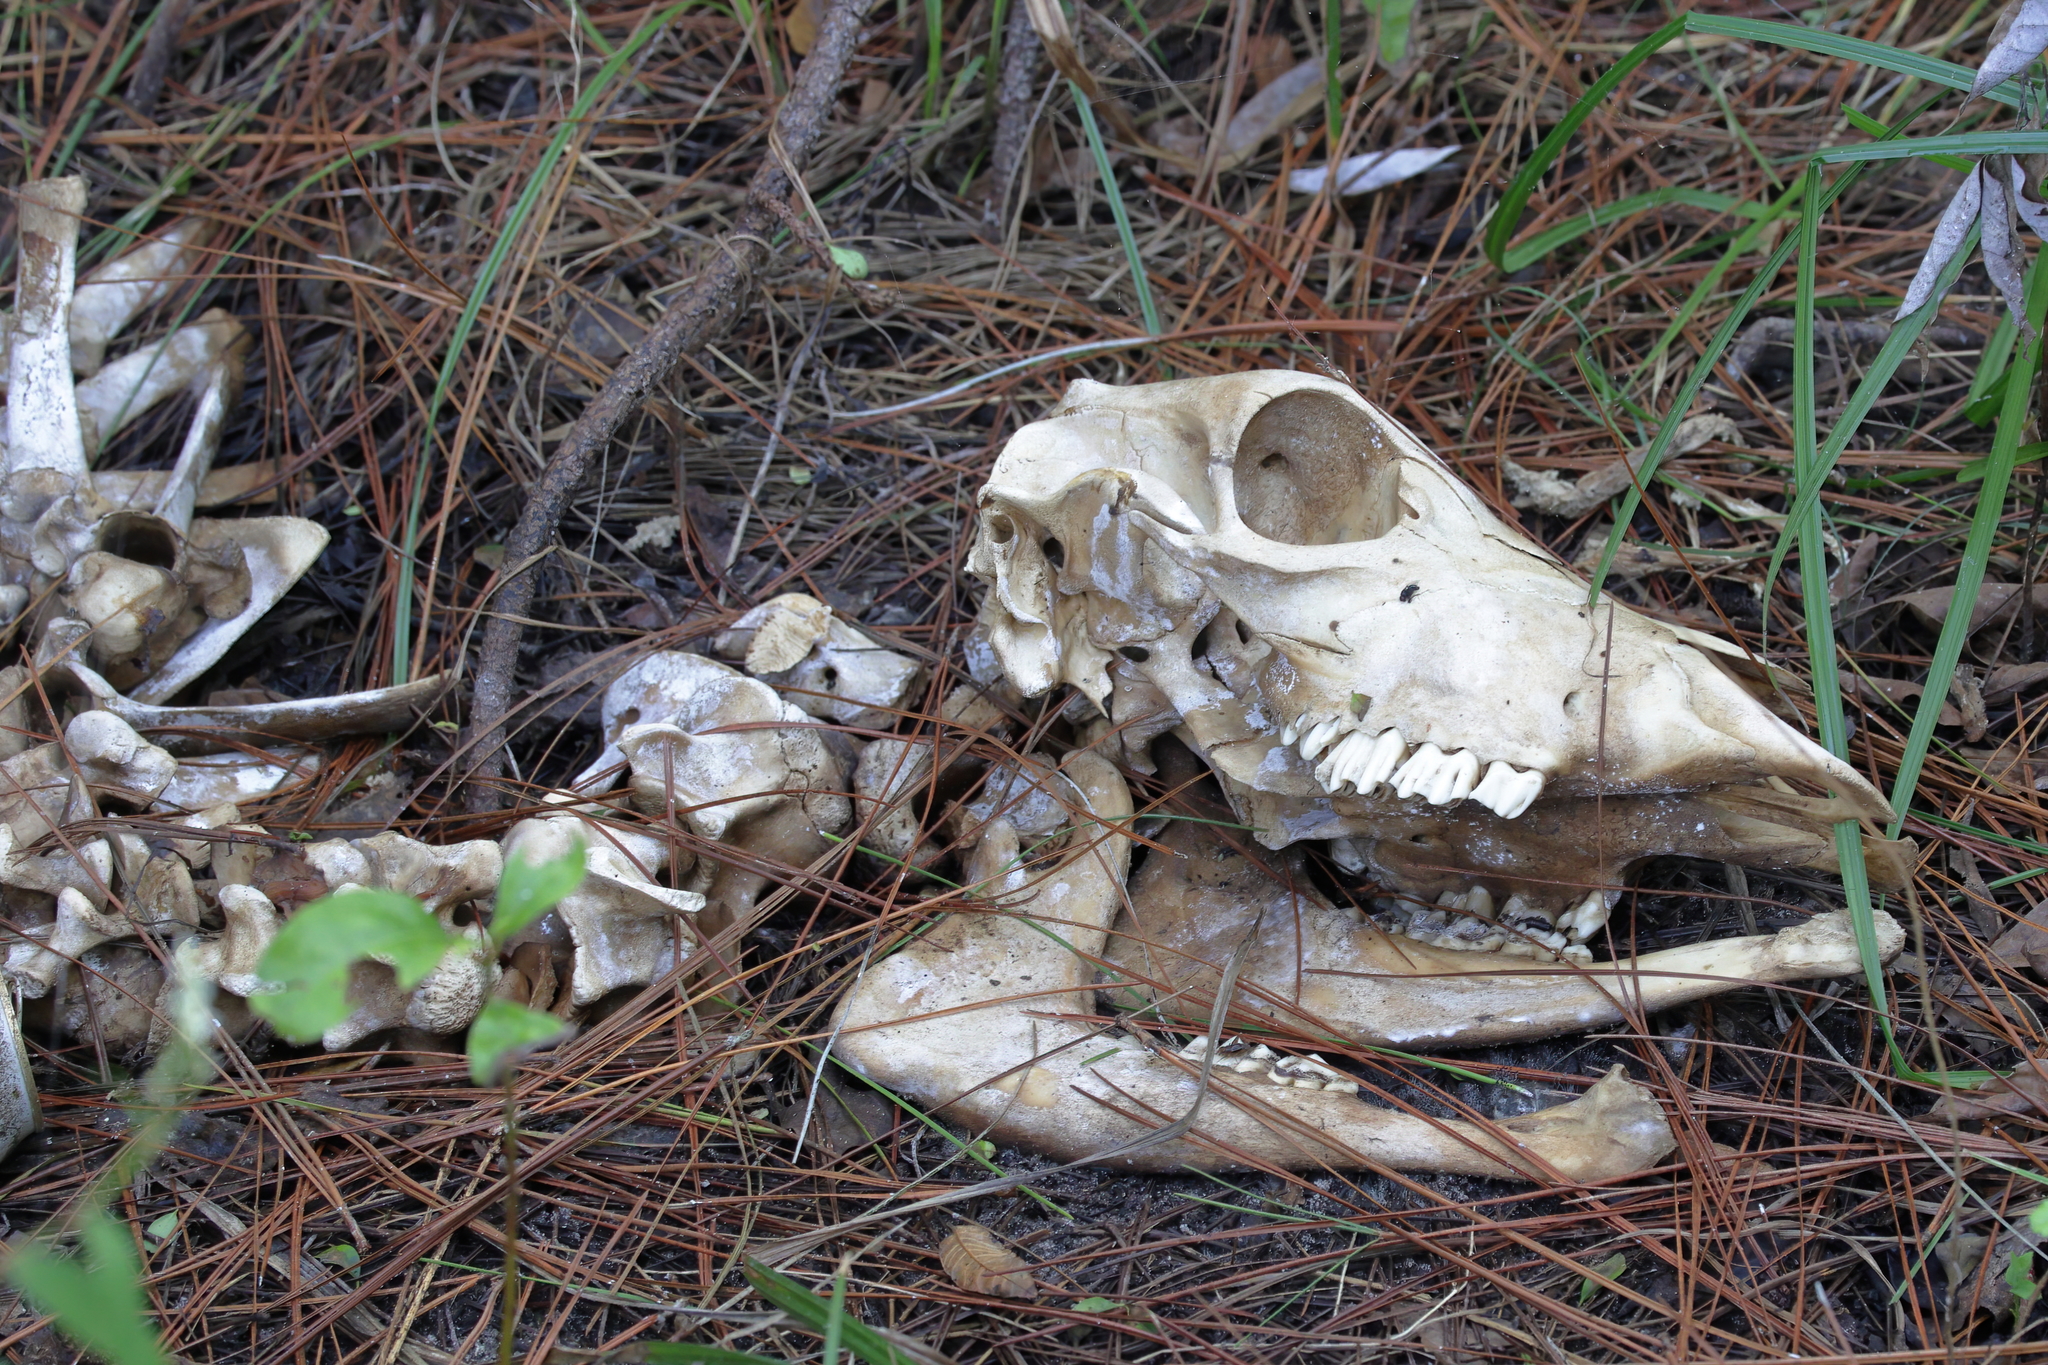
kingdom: Animalia
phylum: Chordata
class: Mammalia
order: Artiodactyla
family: Cervidae
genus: Odocoileus
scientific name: Odocoileus virginianus
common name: White-tailed deer
